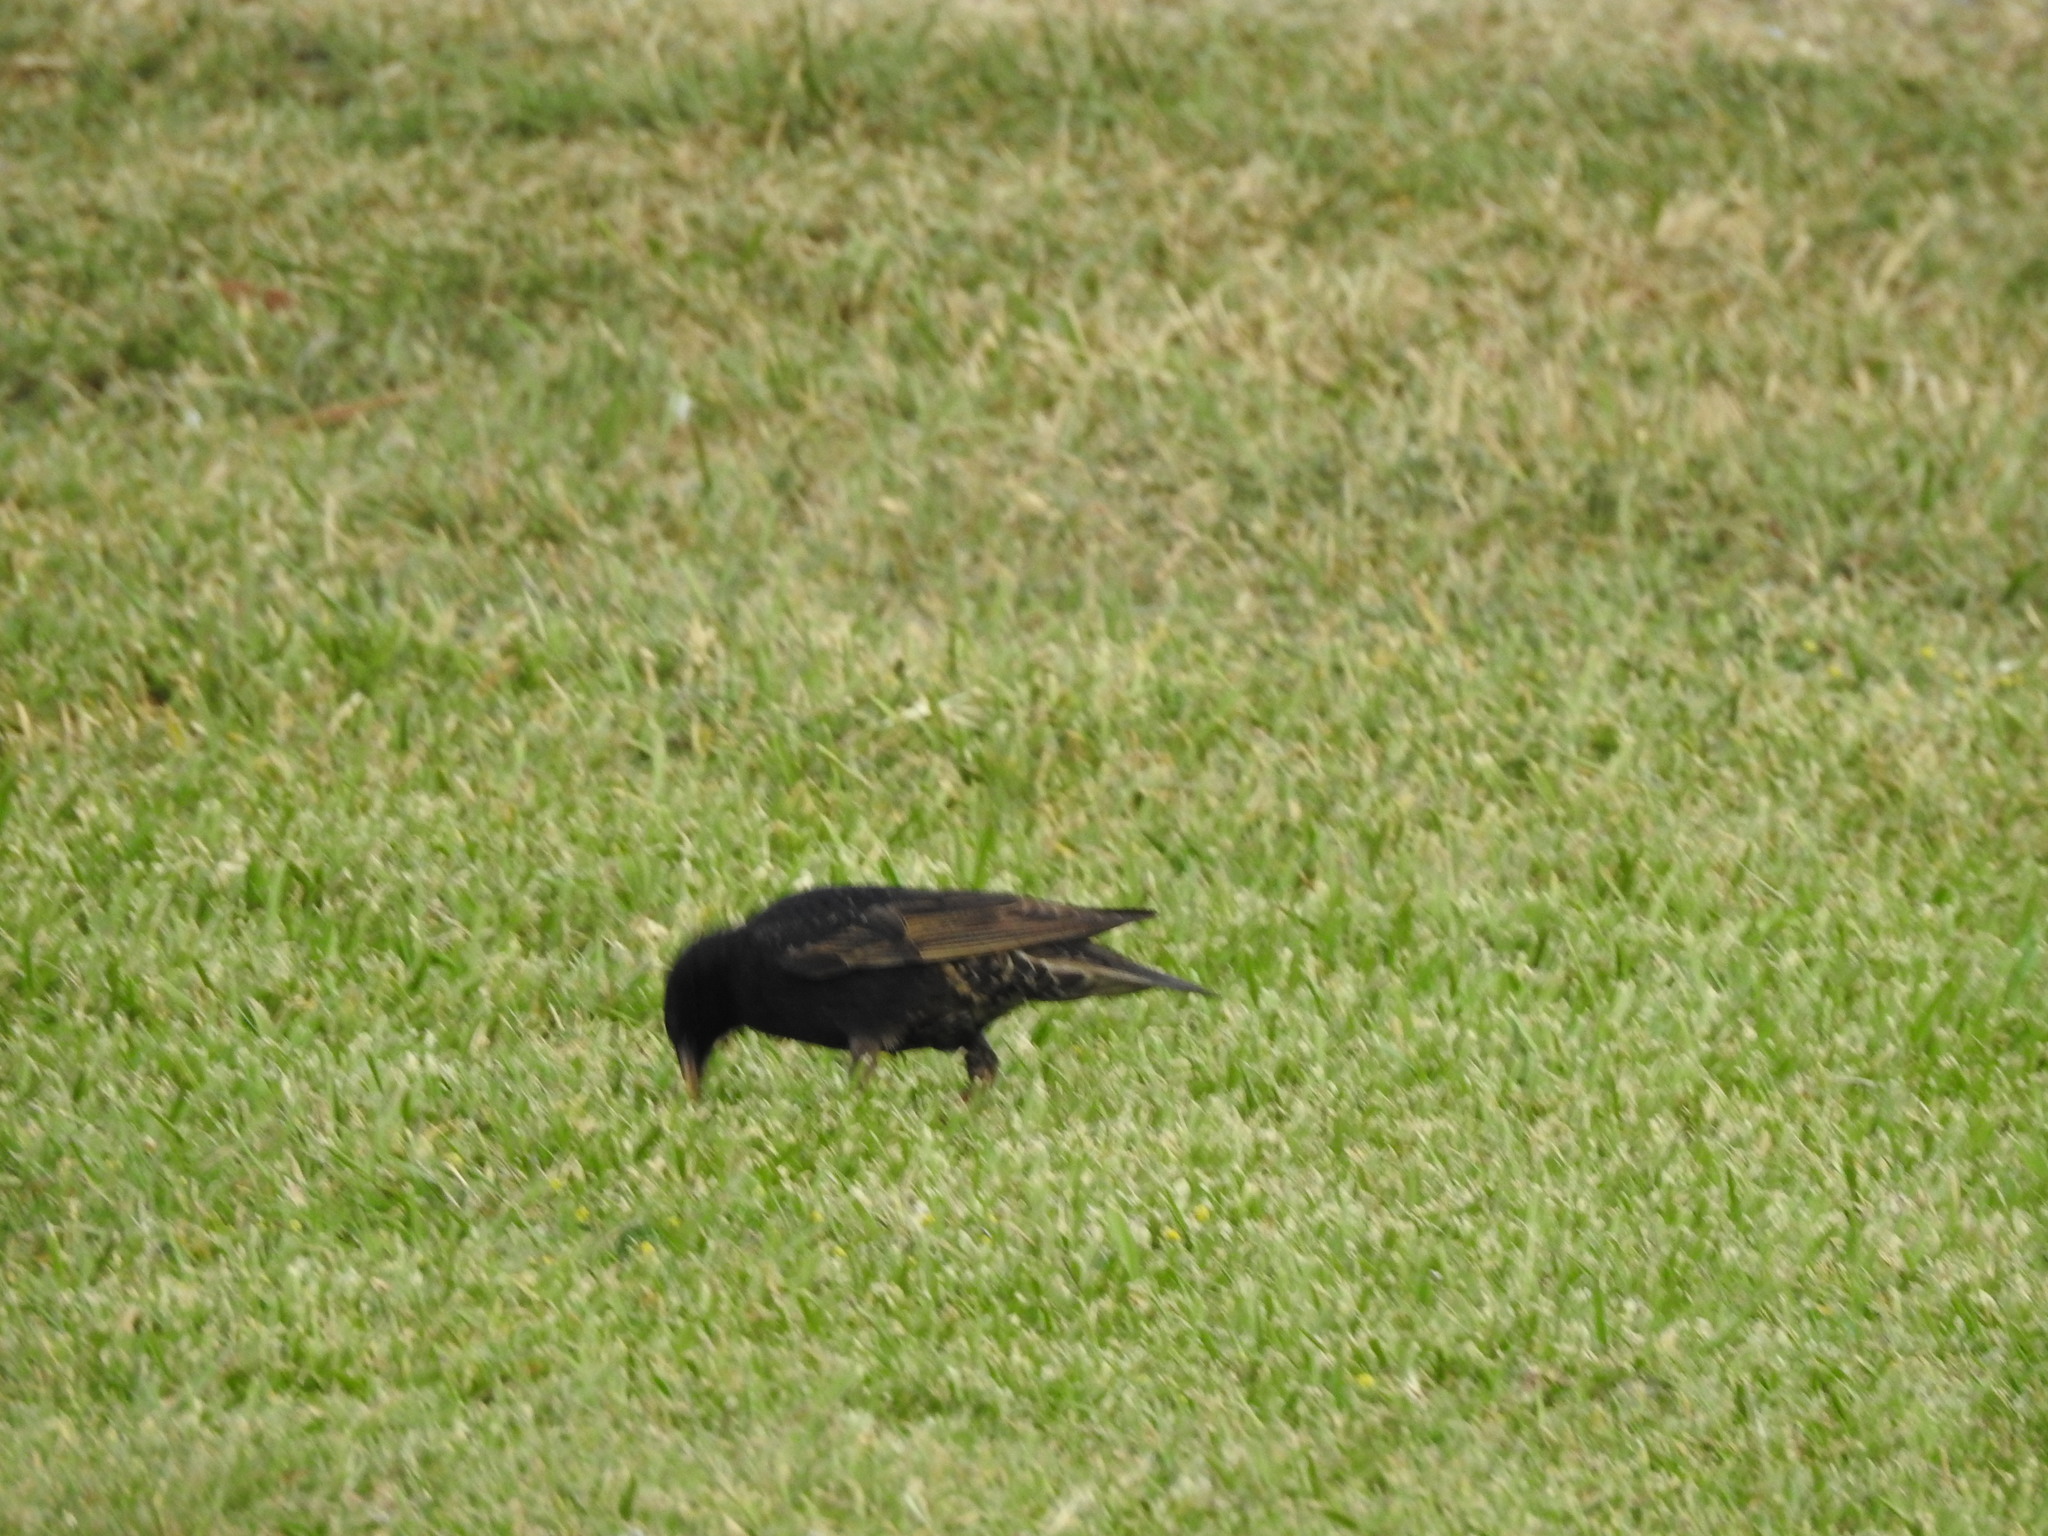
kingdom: Animalia
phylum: Chordata
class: Aves
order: Passeriformes
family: Sturnidae
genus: Sturnus
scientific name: Sturnus vulgaris
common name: Common starling
